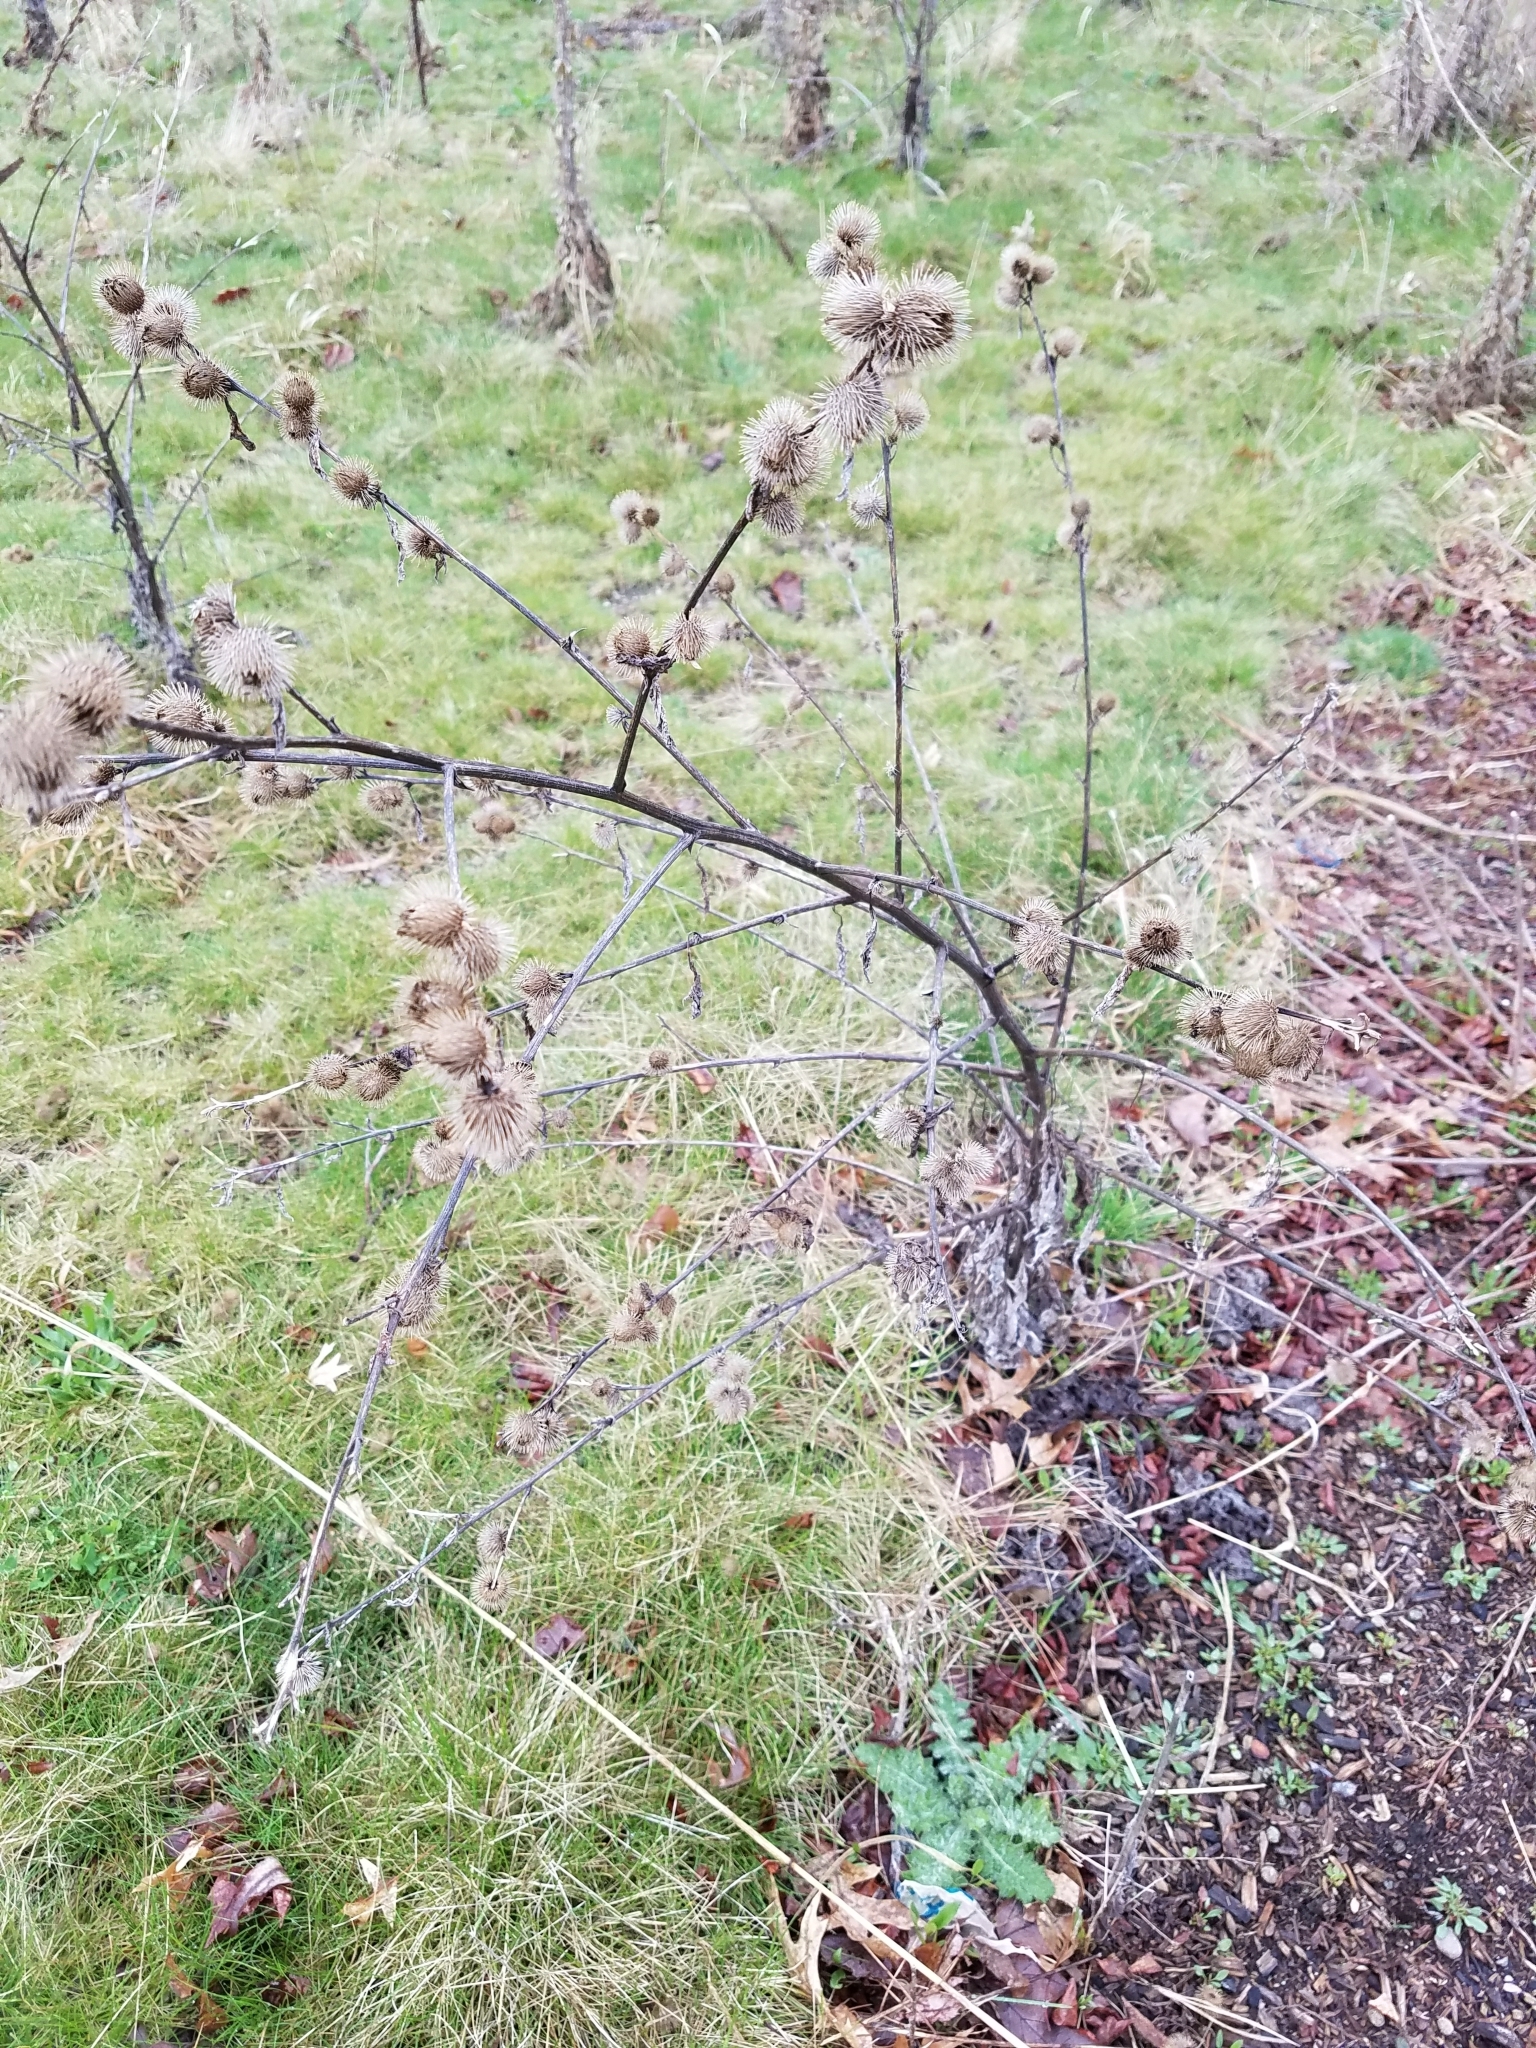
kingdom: Plantae
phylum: Tracheophyta
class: Magnoliopsida
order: Asterales
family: Asteraceae
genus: Arctium
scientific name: Arctium minus
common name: Lesser burdock
